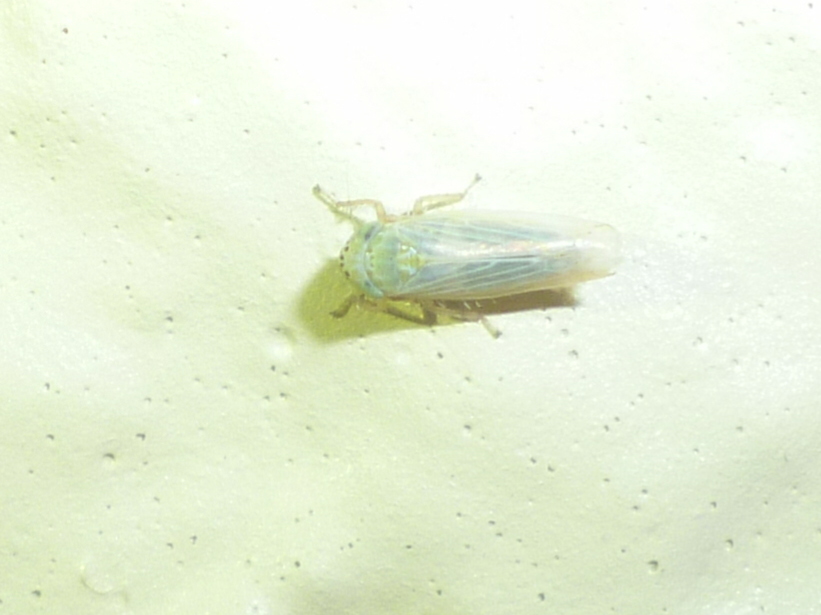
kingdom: Animalia
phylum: Arthropoda
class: Insecta
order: Hemiptera
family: Cicadellidae
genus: Graminella
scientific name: Graminella nigrifrons
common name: Blackfaced leafhopper
